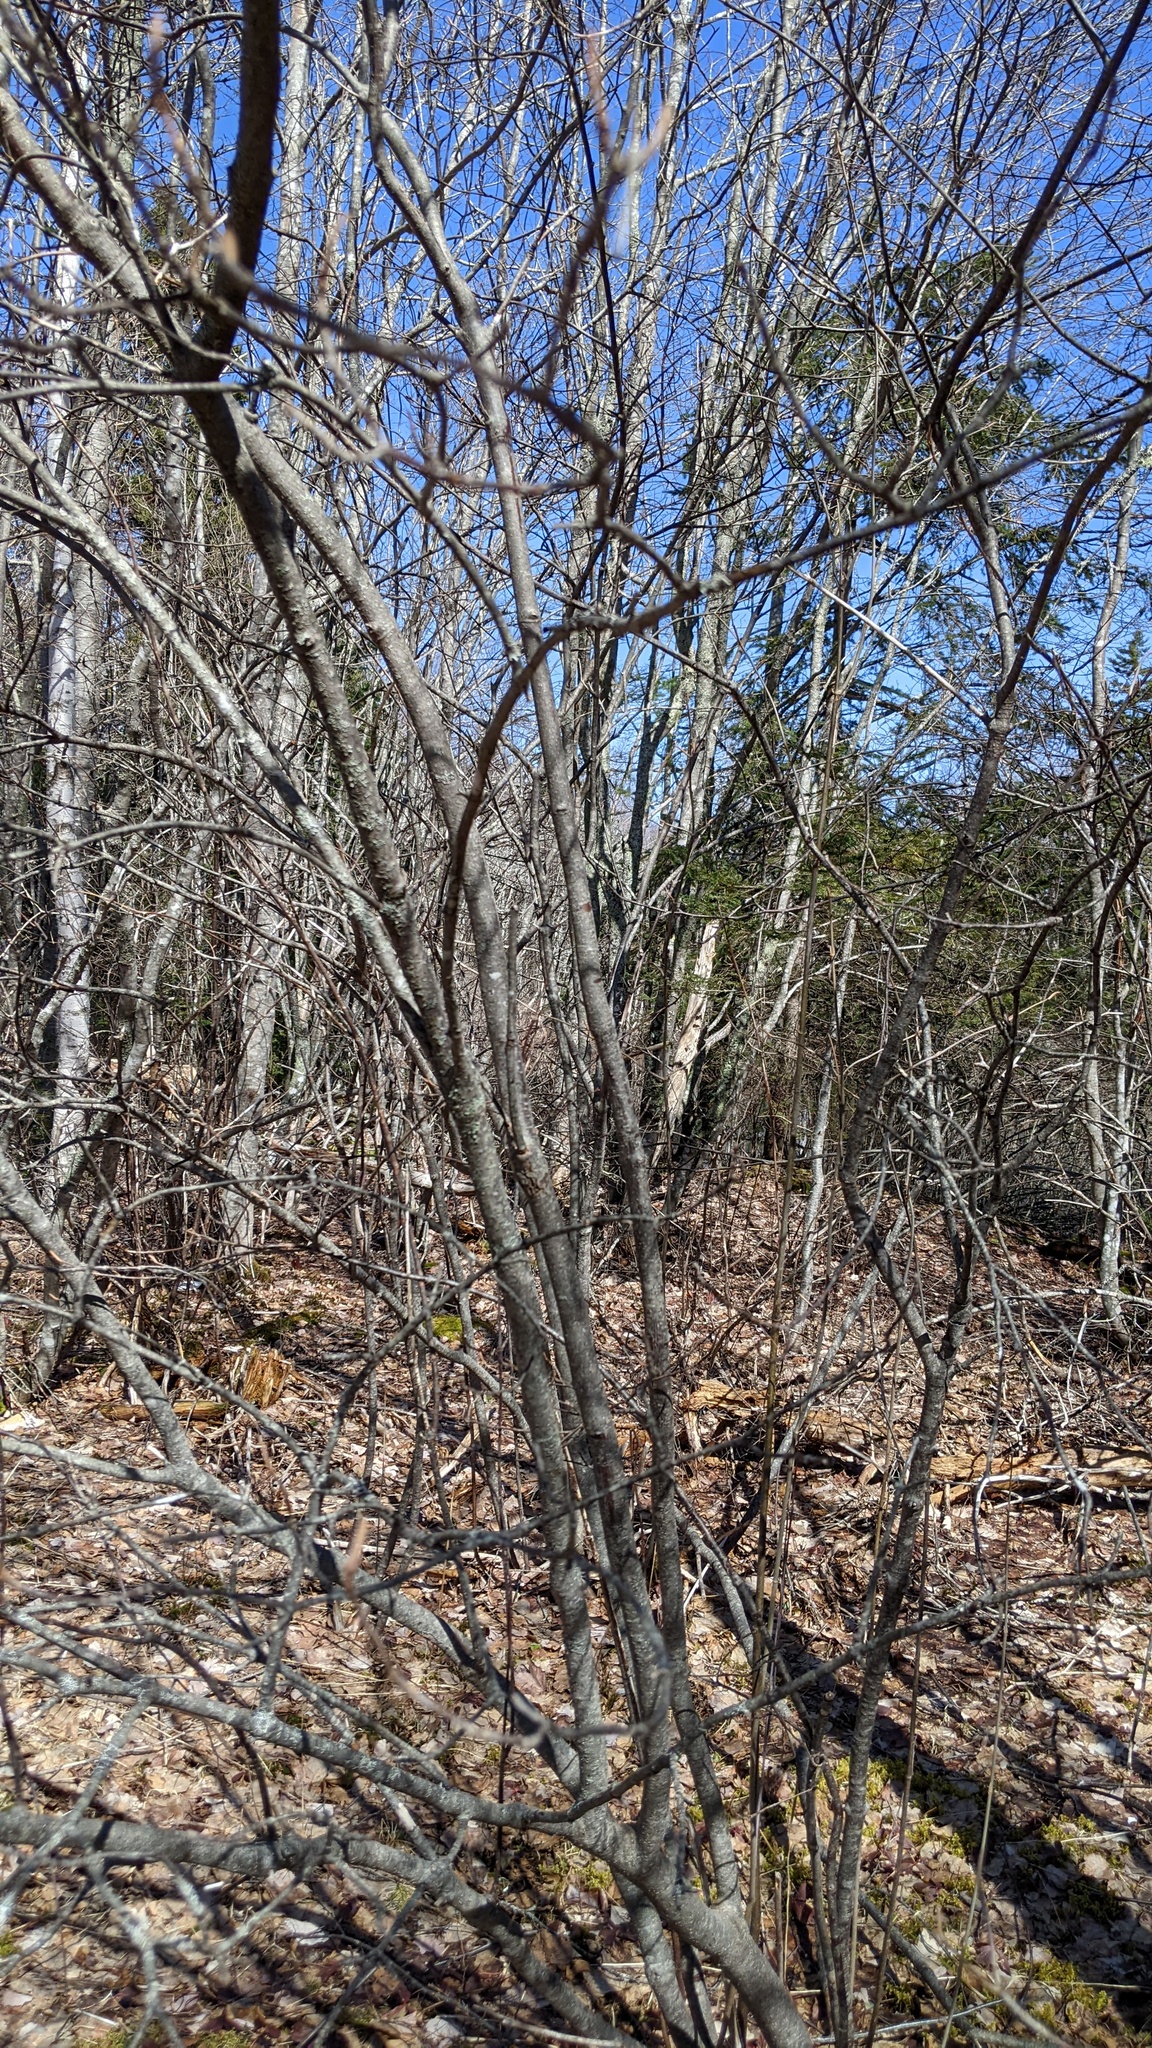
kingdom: Plantae
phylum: Tracheophyta
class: Magnoliopsida
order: Dipsacales
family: Viburnaceae
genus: Viburnum
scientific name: Viburnum cassinoides
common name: Swamp haw
